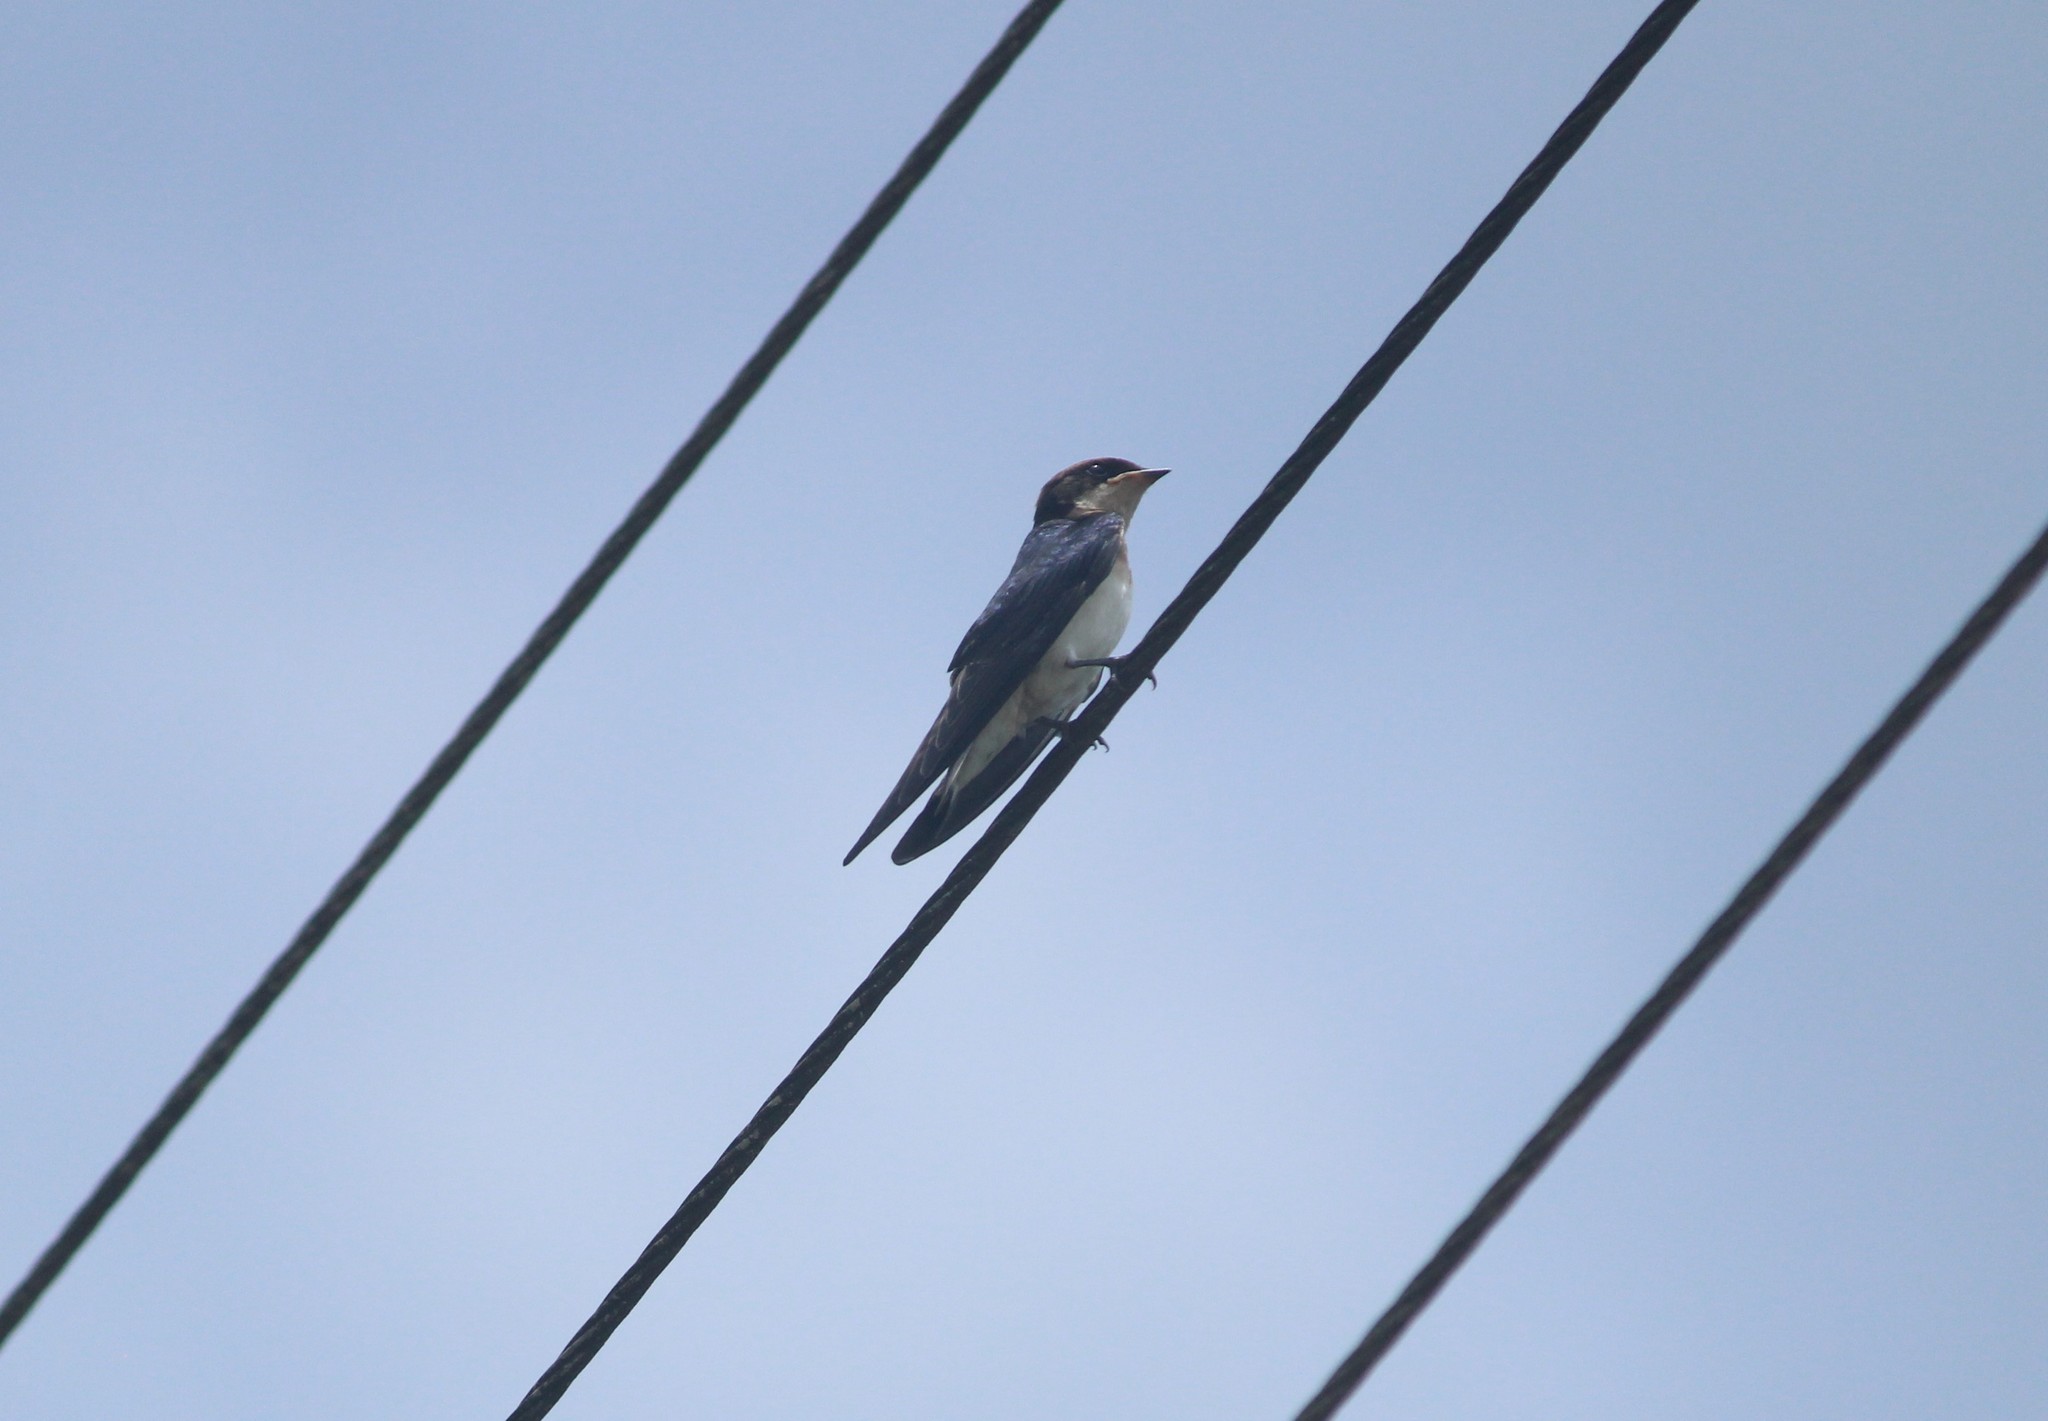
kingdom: Animalia
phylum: Chordata
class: Aves
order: Passeriformes
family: Hirundinidae
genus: Hirundo
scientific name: Hirundo smithii
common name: Wire-tailed swallow
